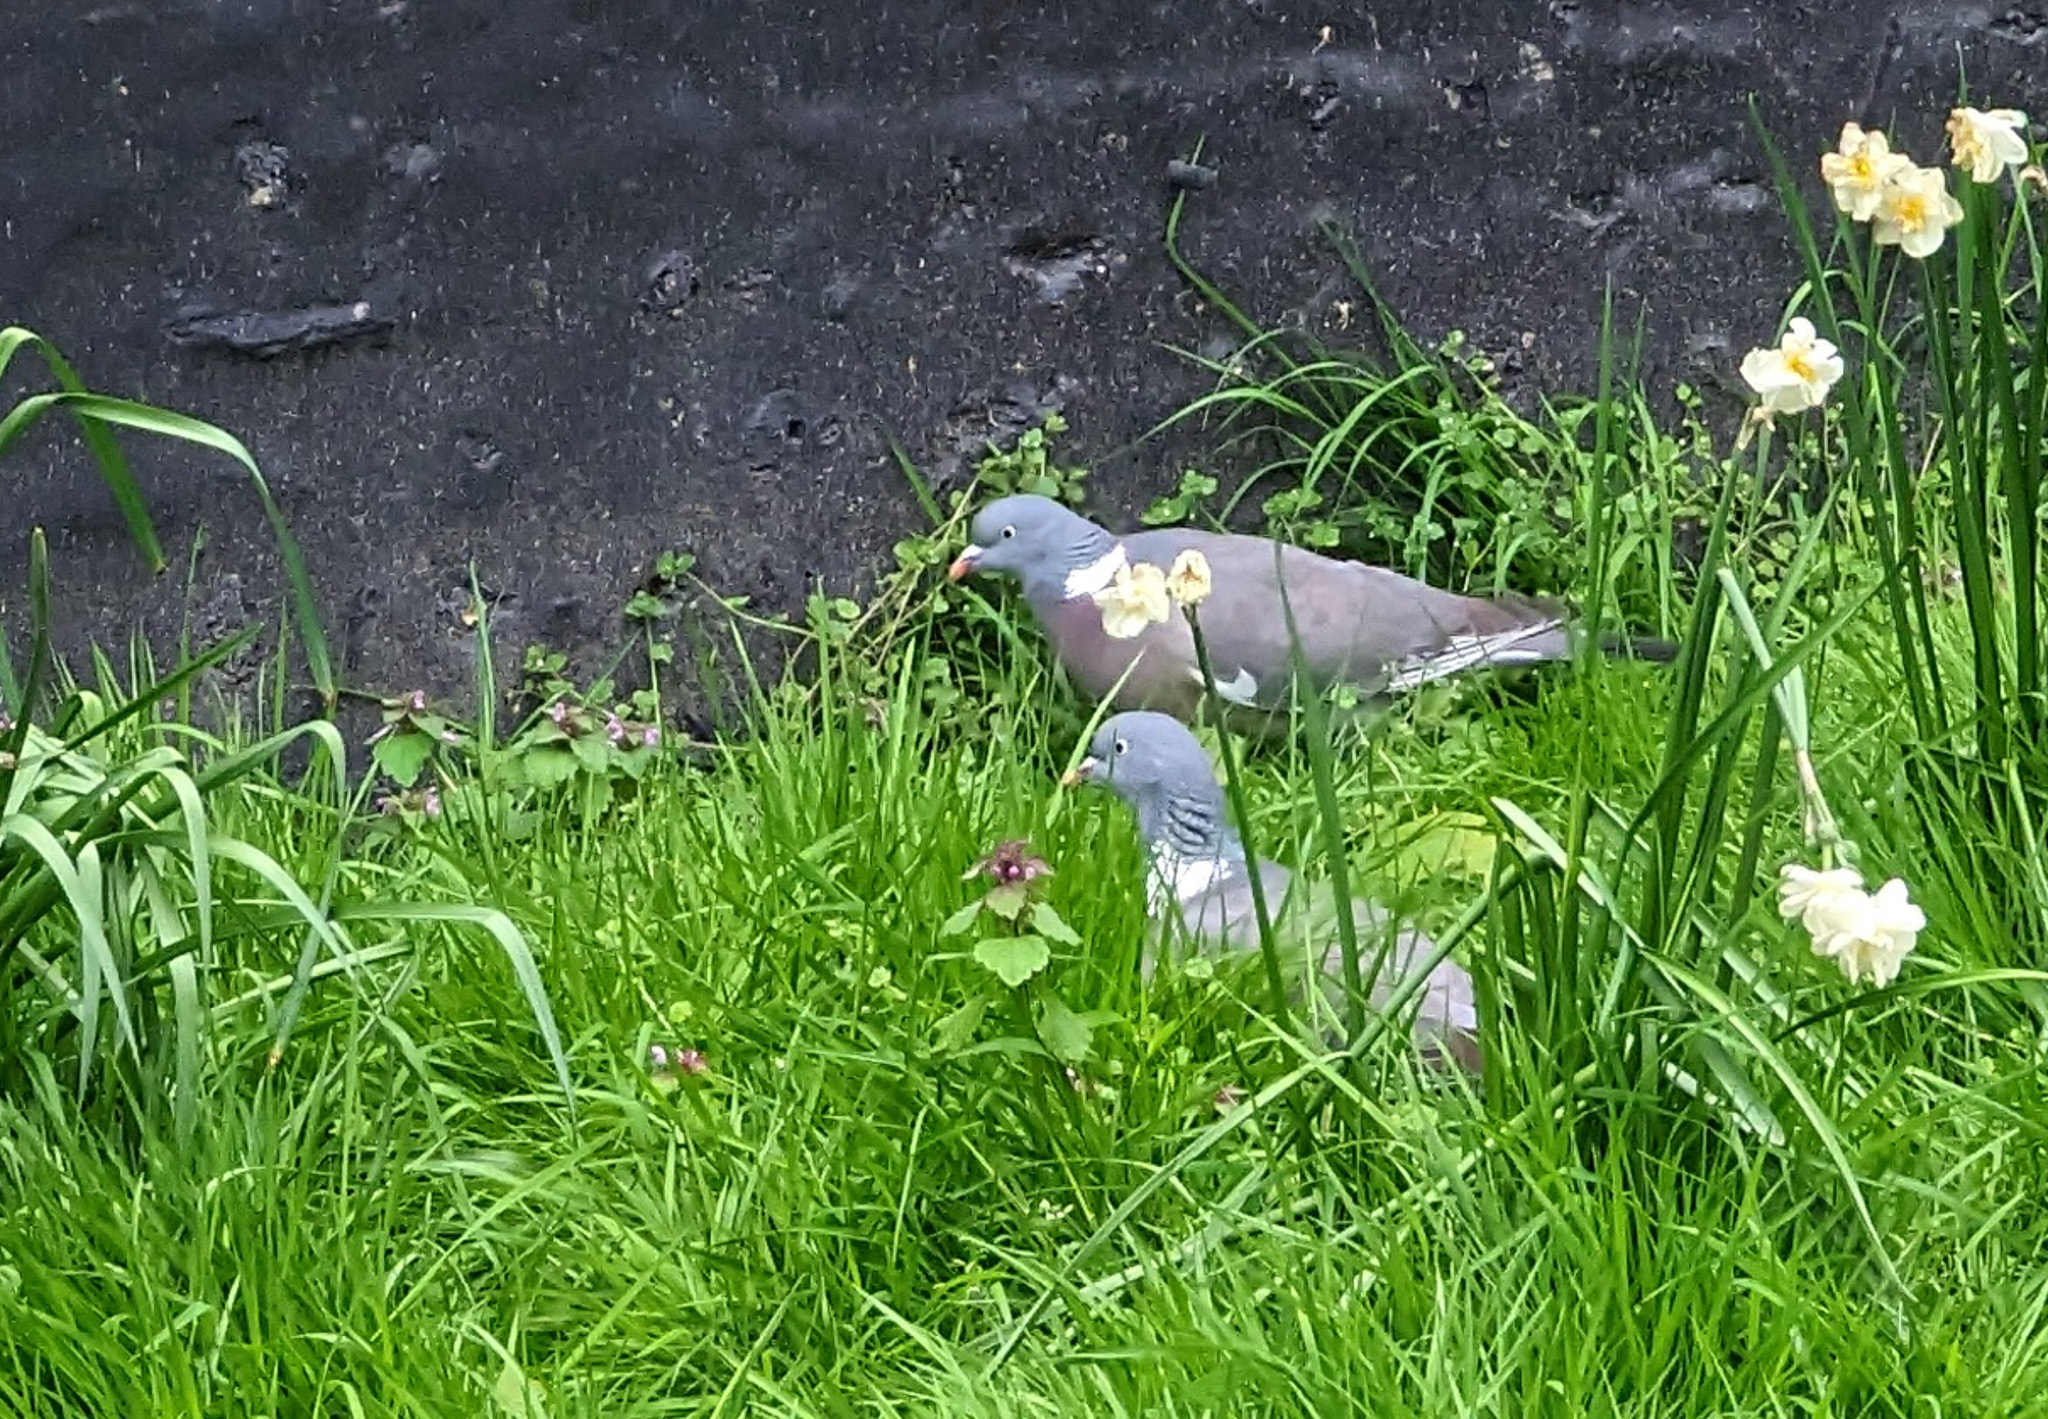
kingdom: Animalia
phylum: Chordata
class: Aves
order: Columbiformes
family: Columbidae
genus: Columba
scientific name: Columba palumbus
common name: Common wood pigeon
